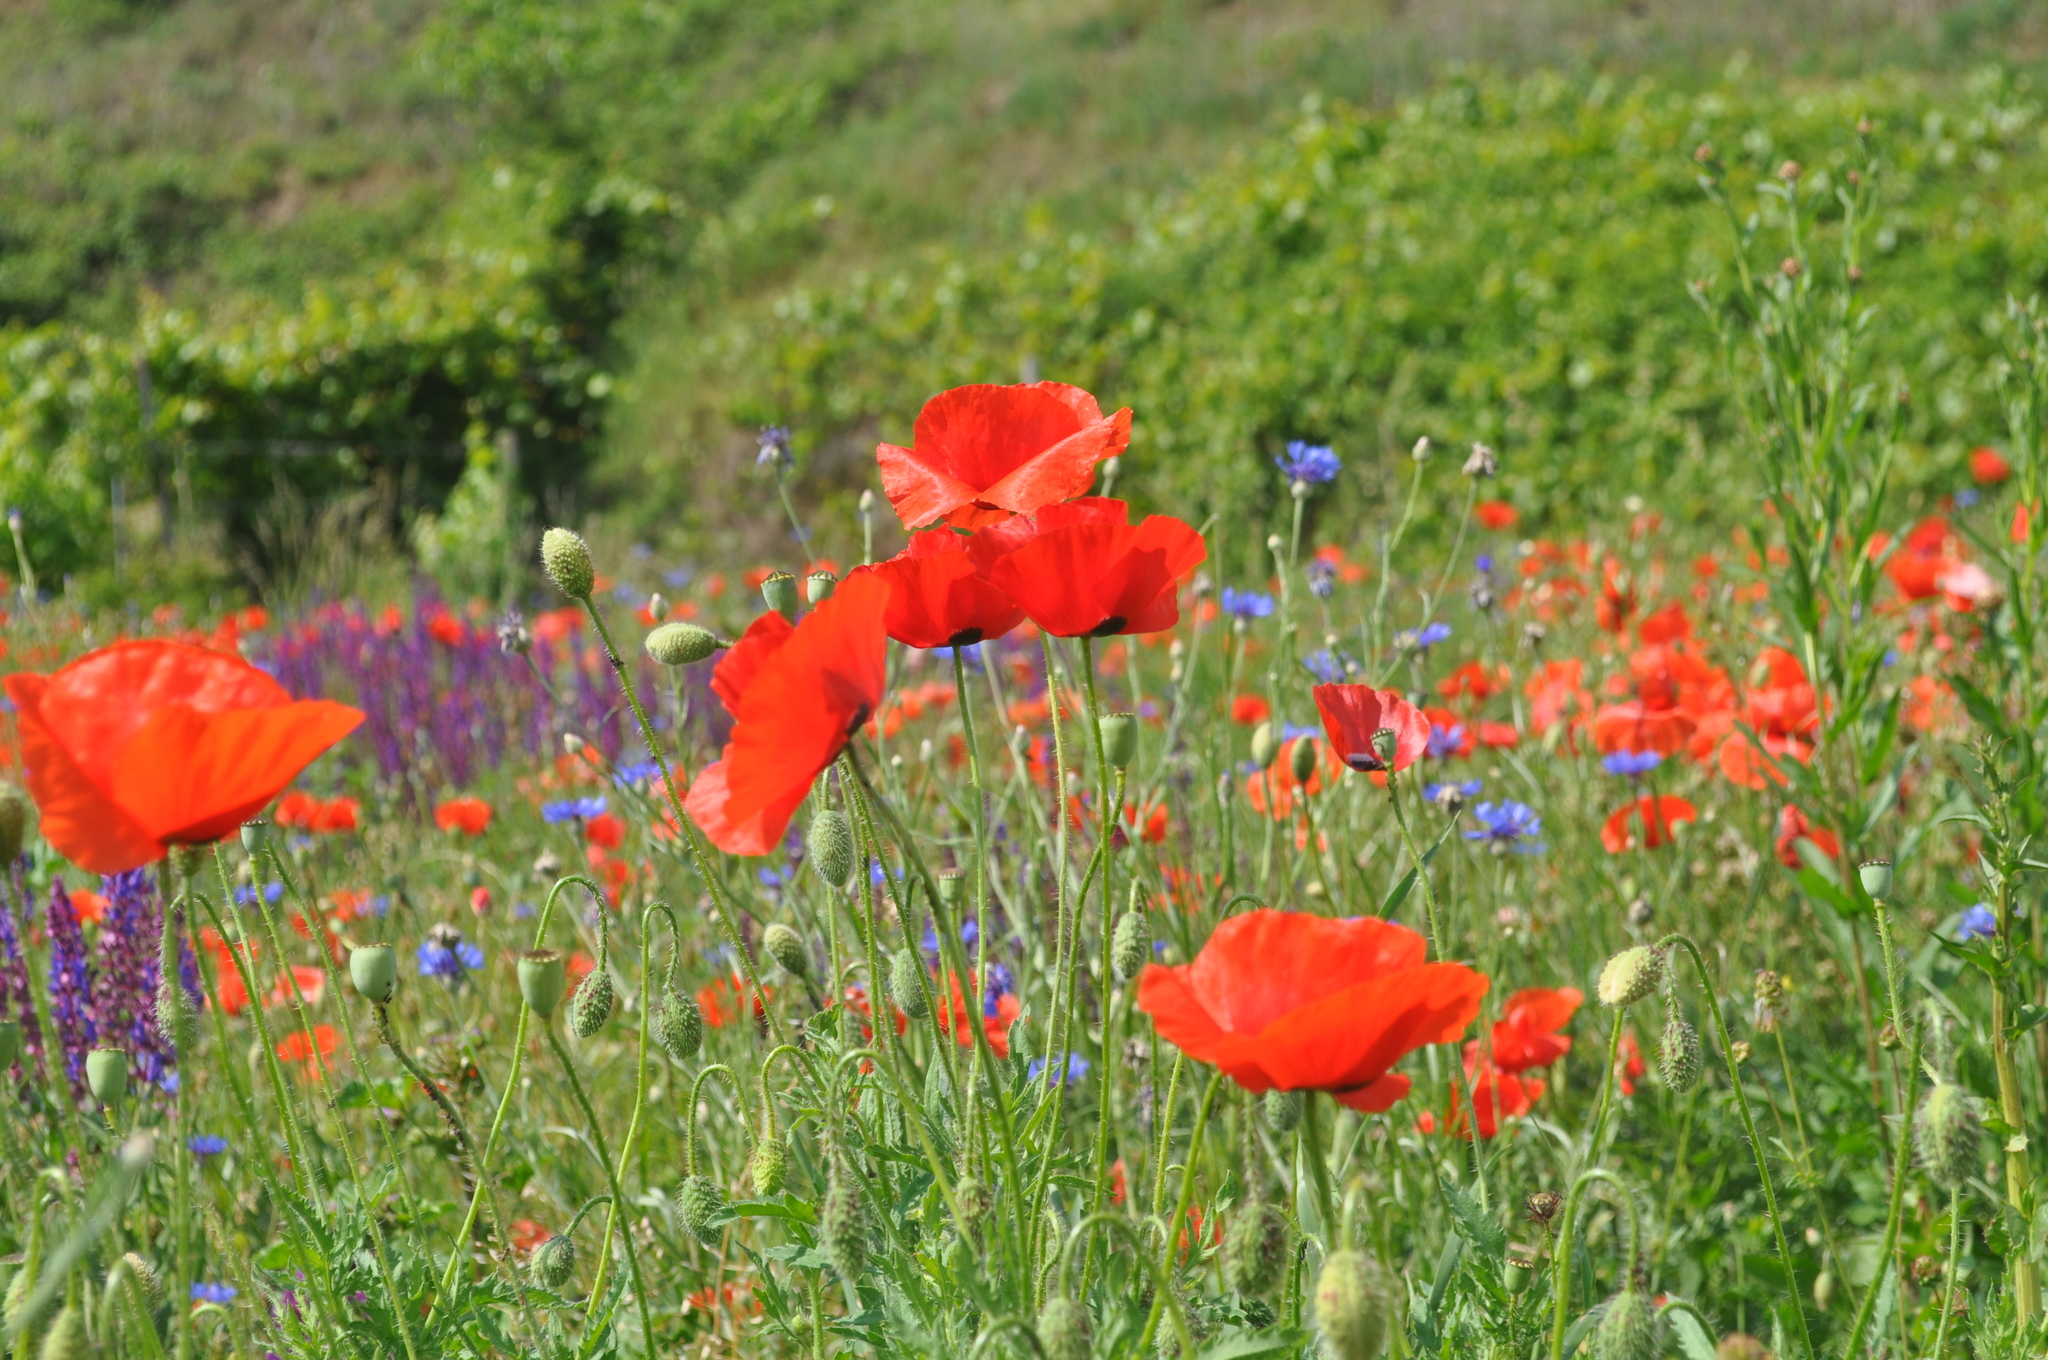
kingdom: Plantae
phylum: Tracheophyta
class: Magnoliopsida
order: Ranunculales
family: Papaveraceae
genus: Papaver
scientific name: Papaver rhoeas
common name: Corn poppy
